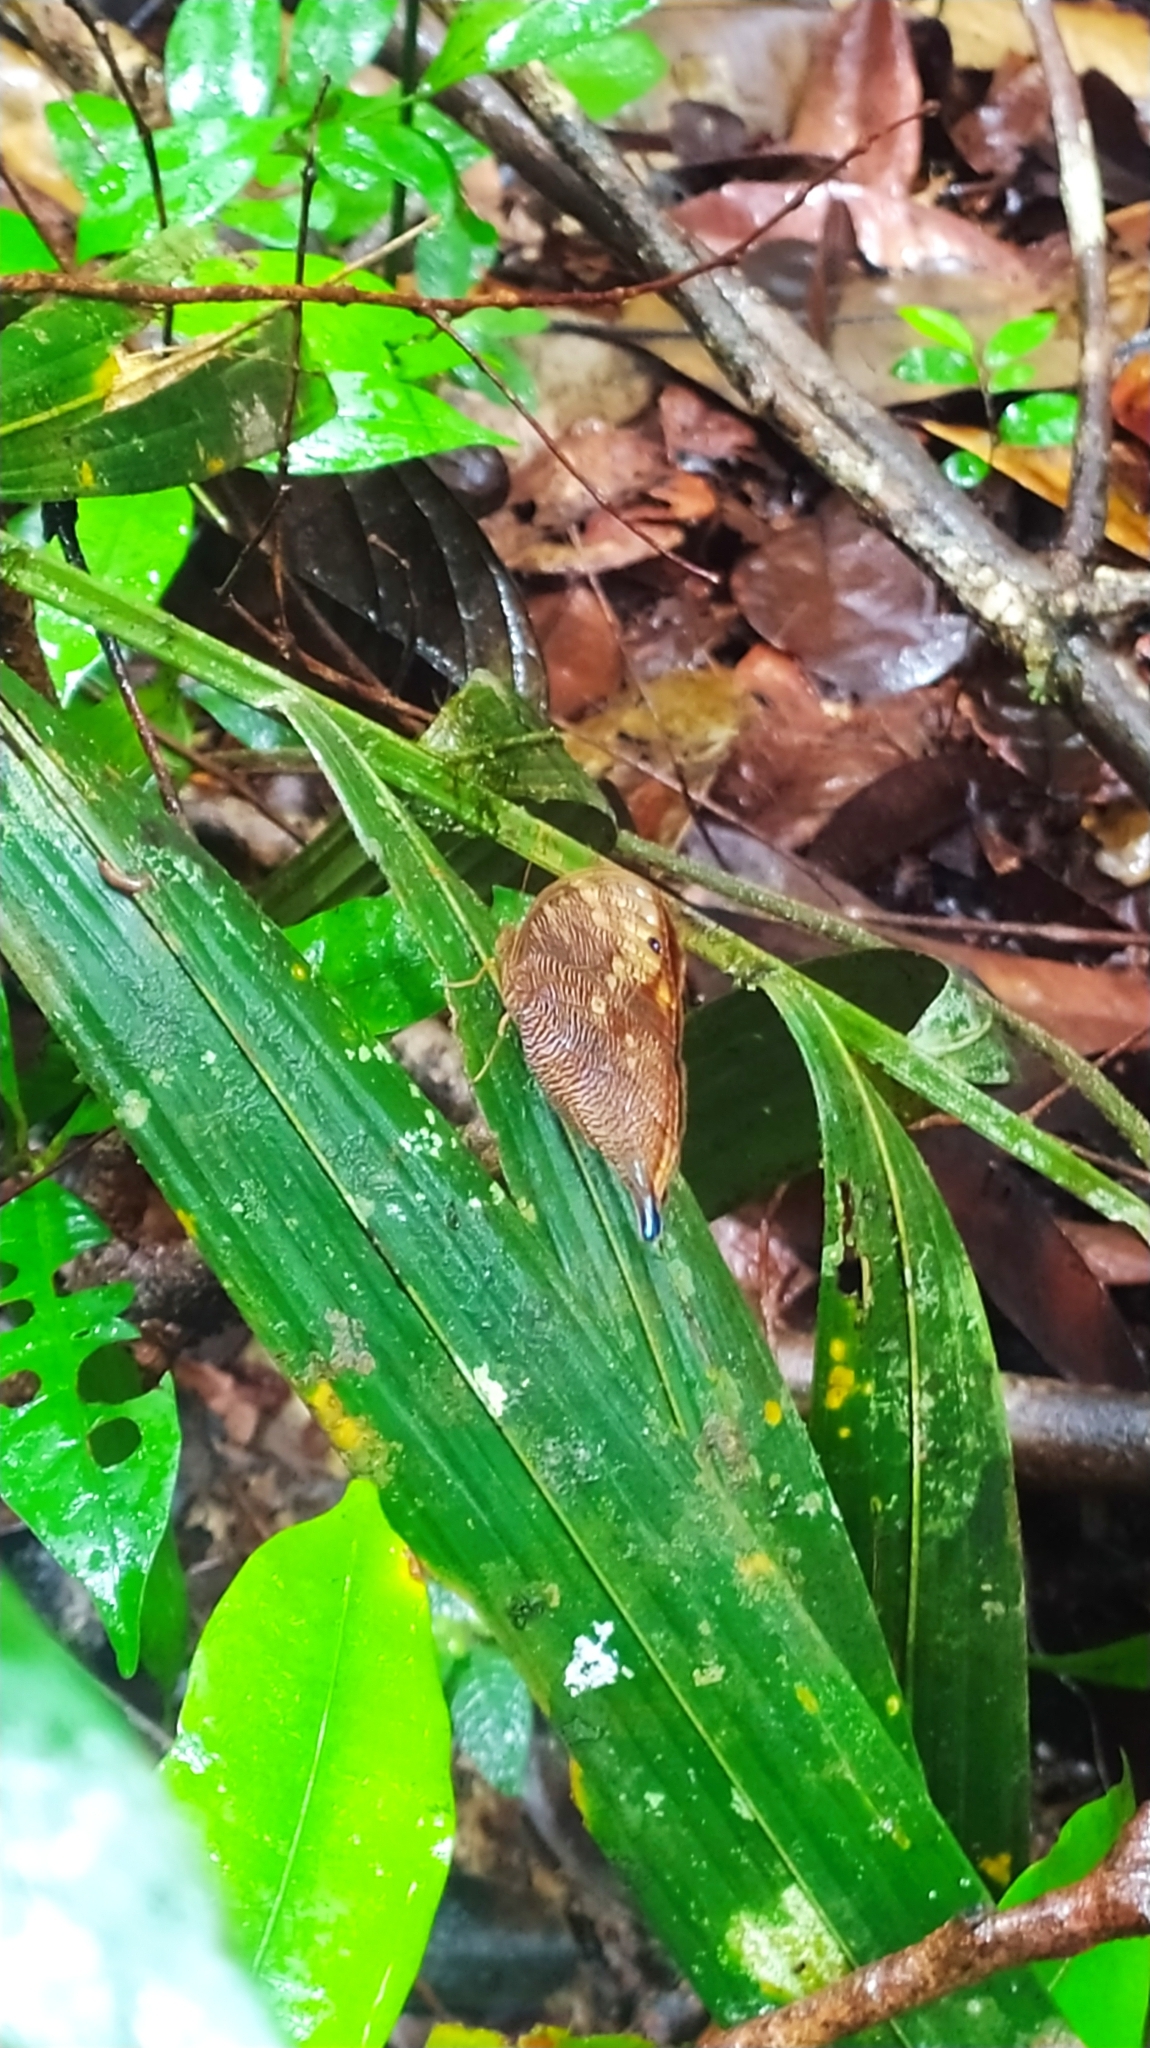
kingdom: Animalia
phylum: Arthropoda
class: Insecta
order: Lepidoptera
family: Nymphalidae
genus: Bia
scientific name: Bia decaerulea
